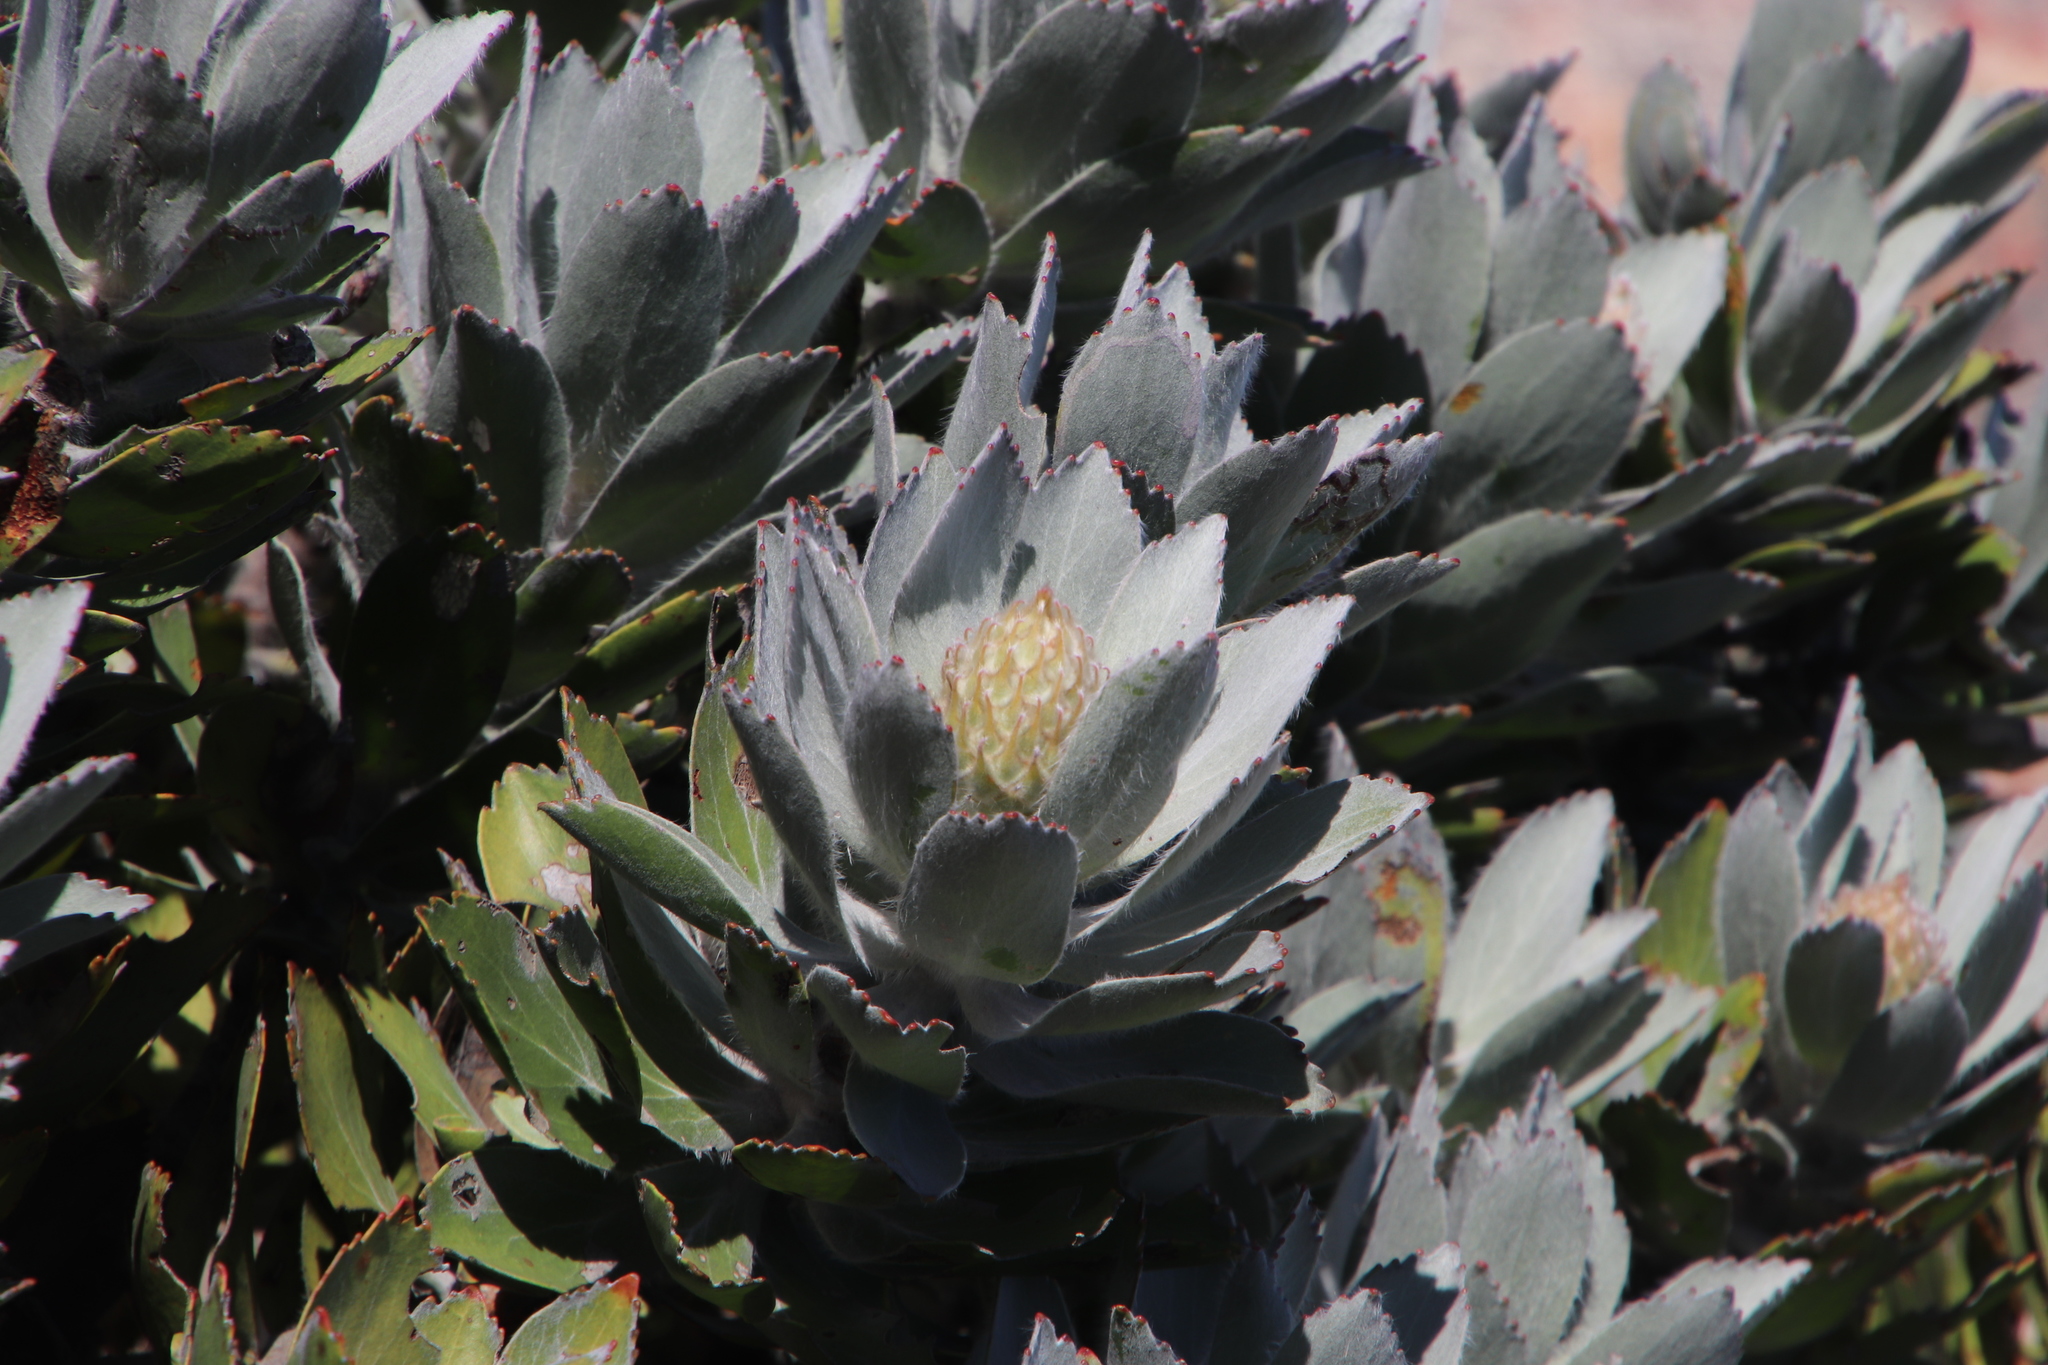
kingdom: Plantae
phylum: Tracheophyta
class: Magnoliopsida
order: Proteales
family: Proteaceae
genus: Leucospermum
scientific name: Leucospermum conocarpodendron
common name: Tree pincushion
